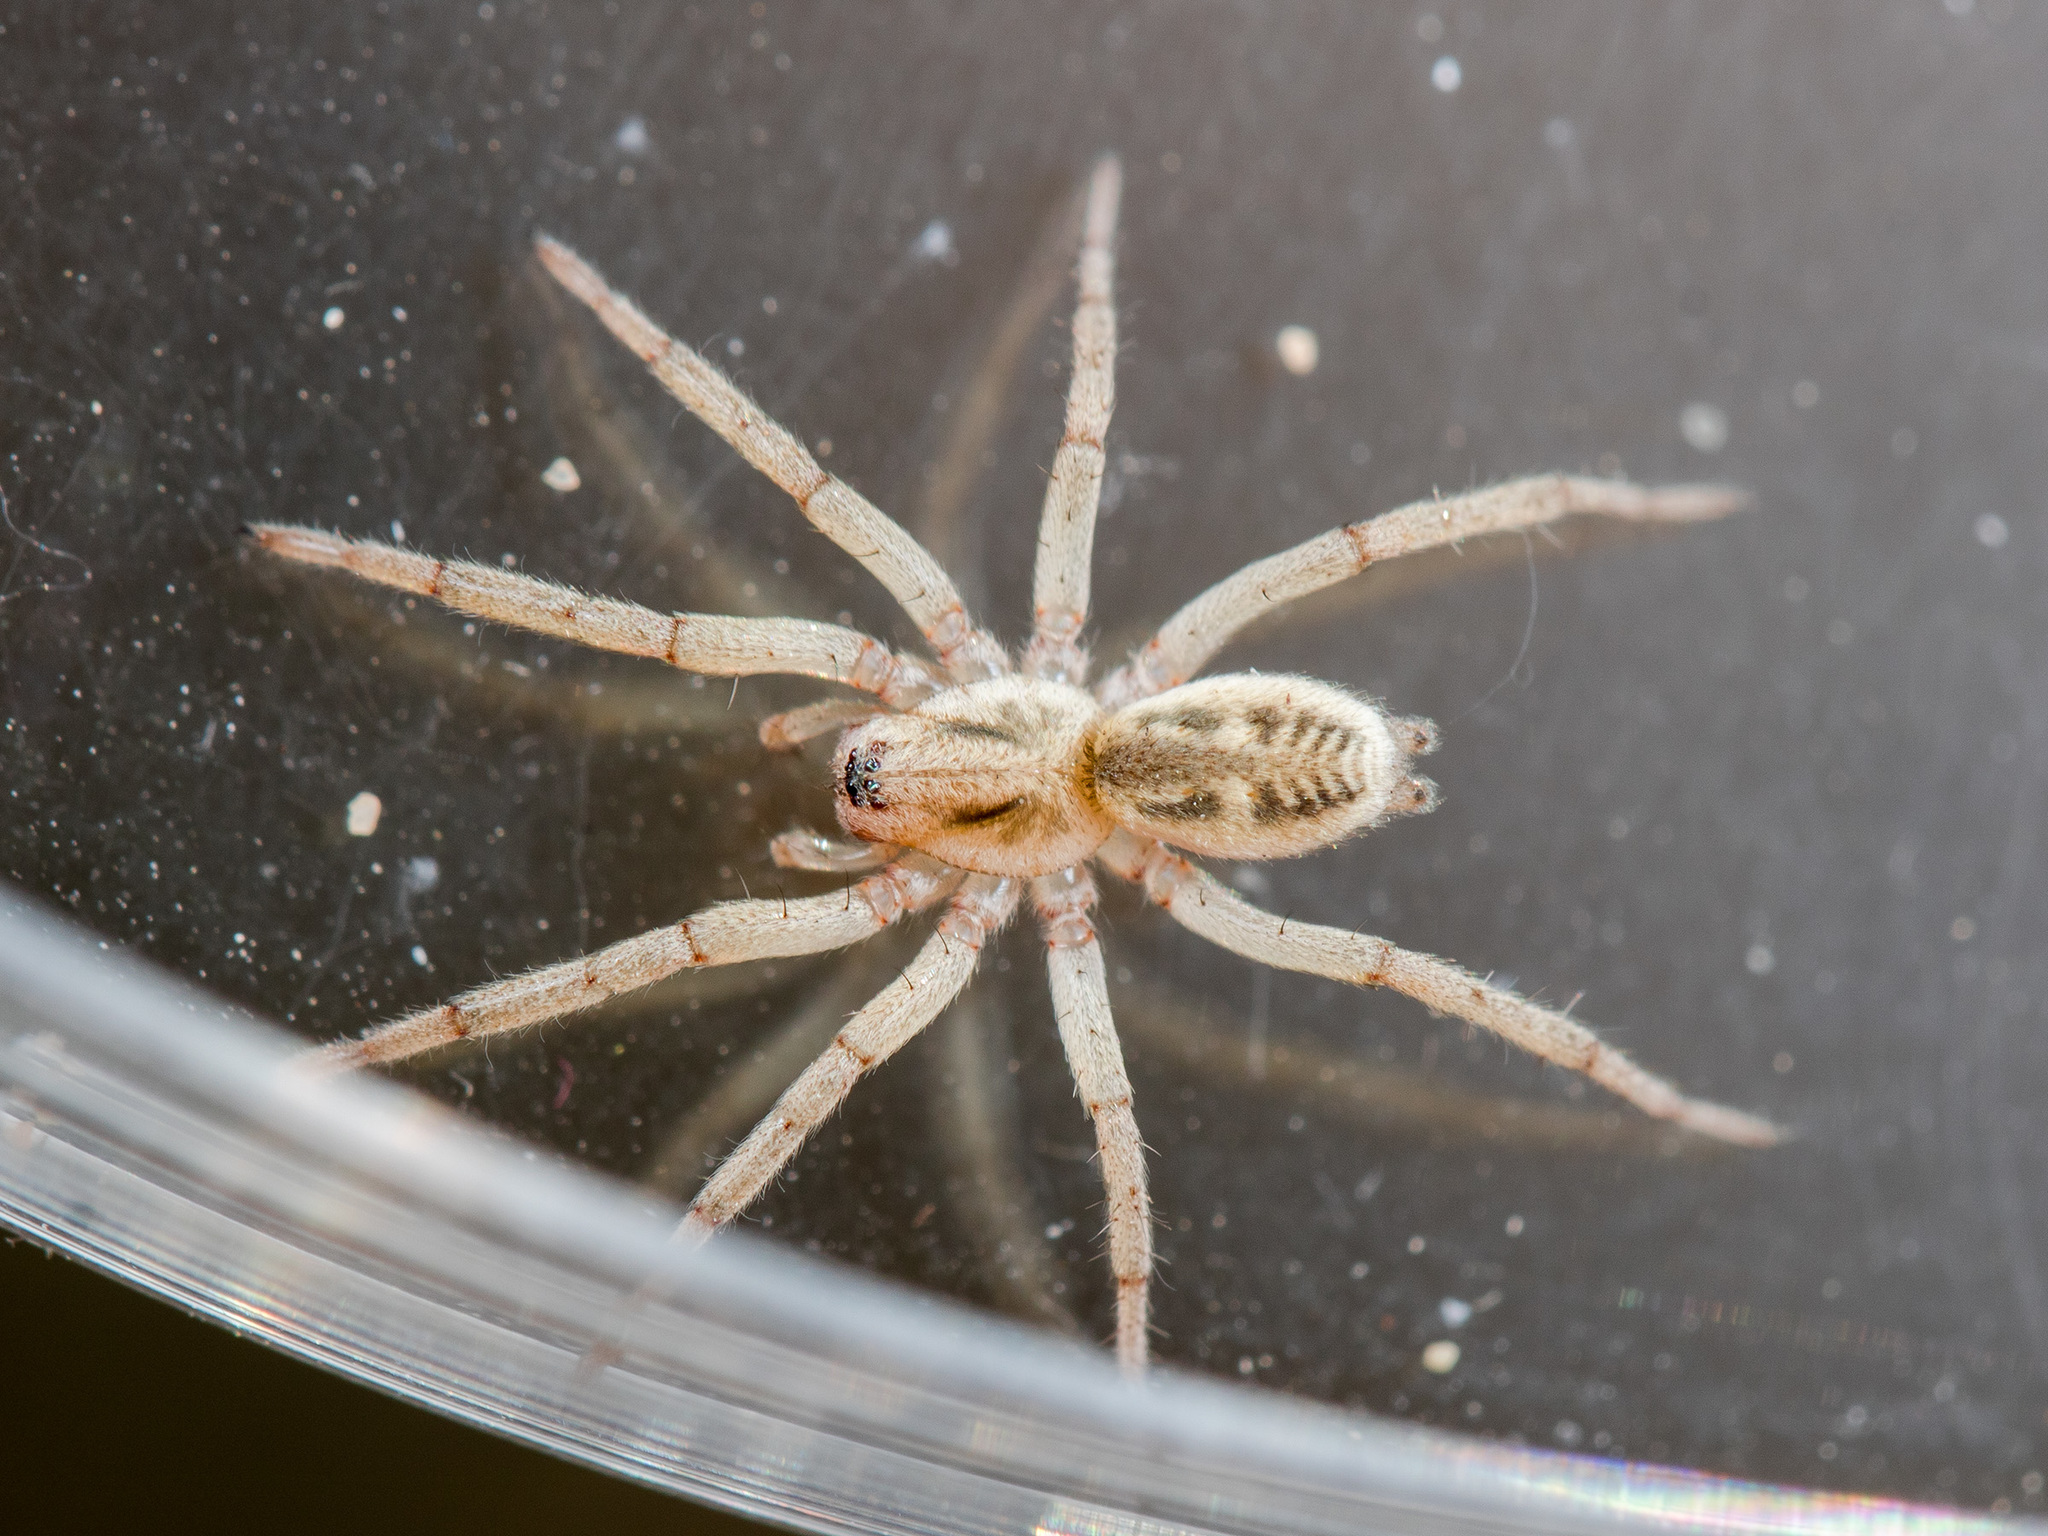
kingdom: Animalia
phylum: Arthropoda
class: Arachnida
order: Araneae
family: Gnaphosidae
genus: Berlandina
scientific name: Berlandina saraevi
